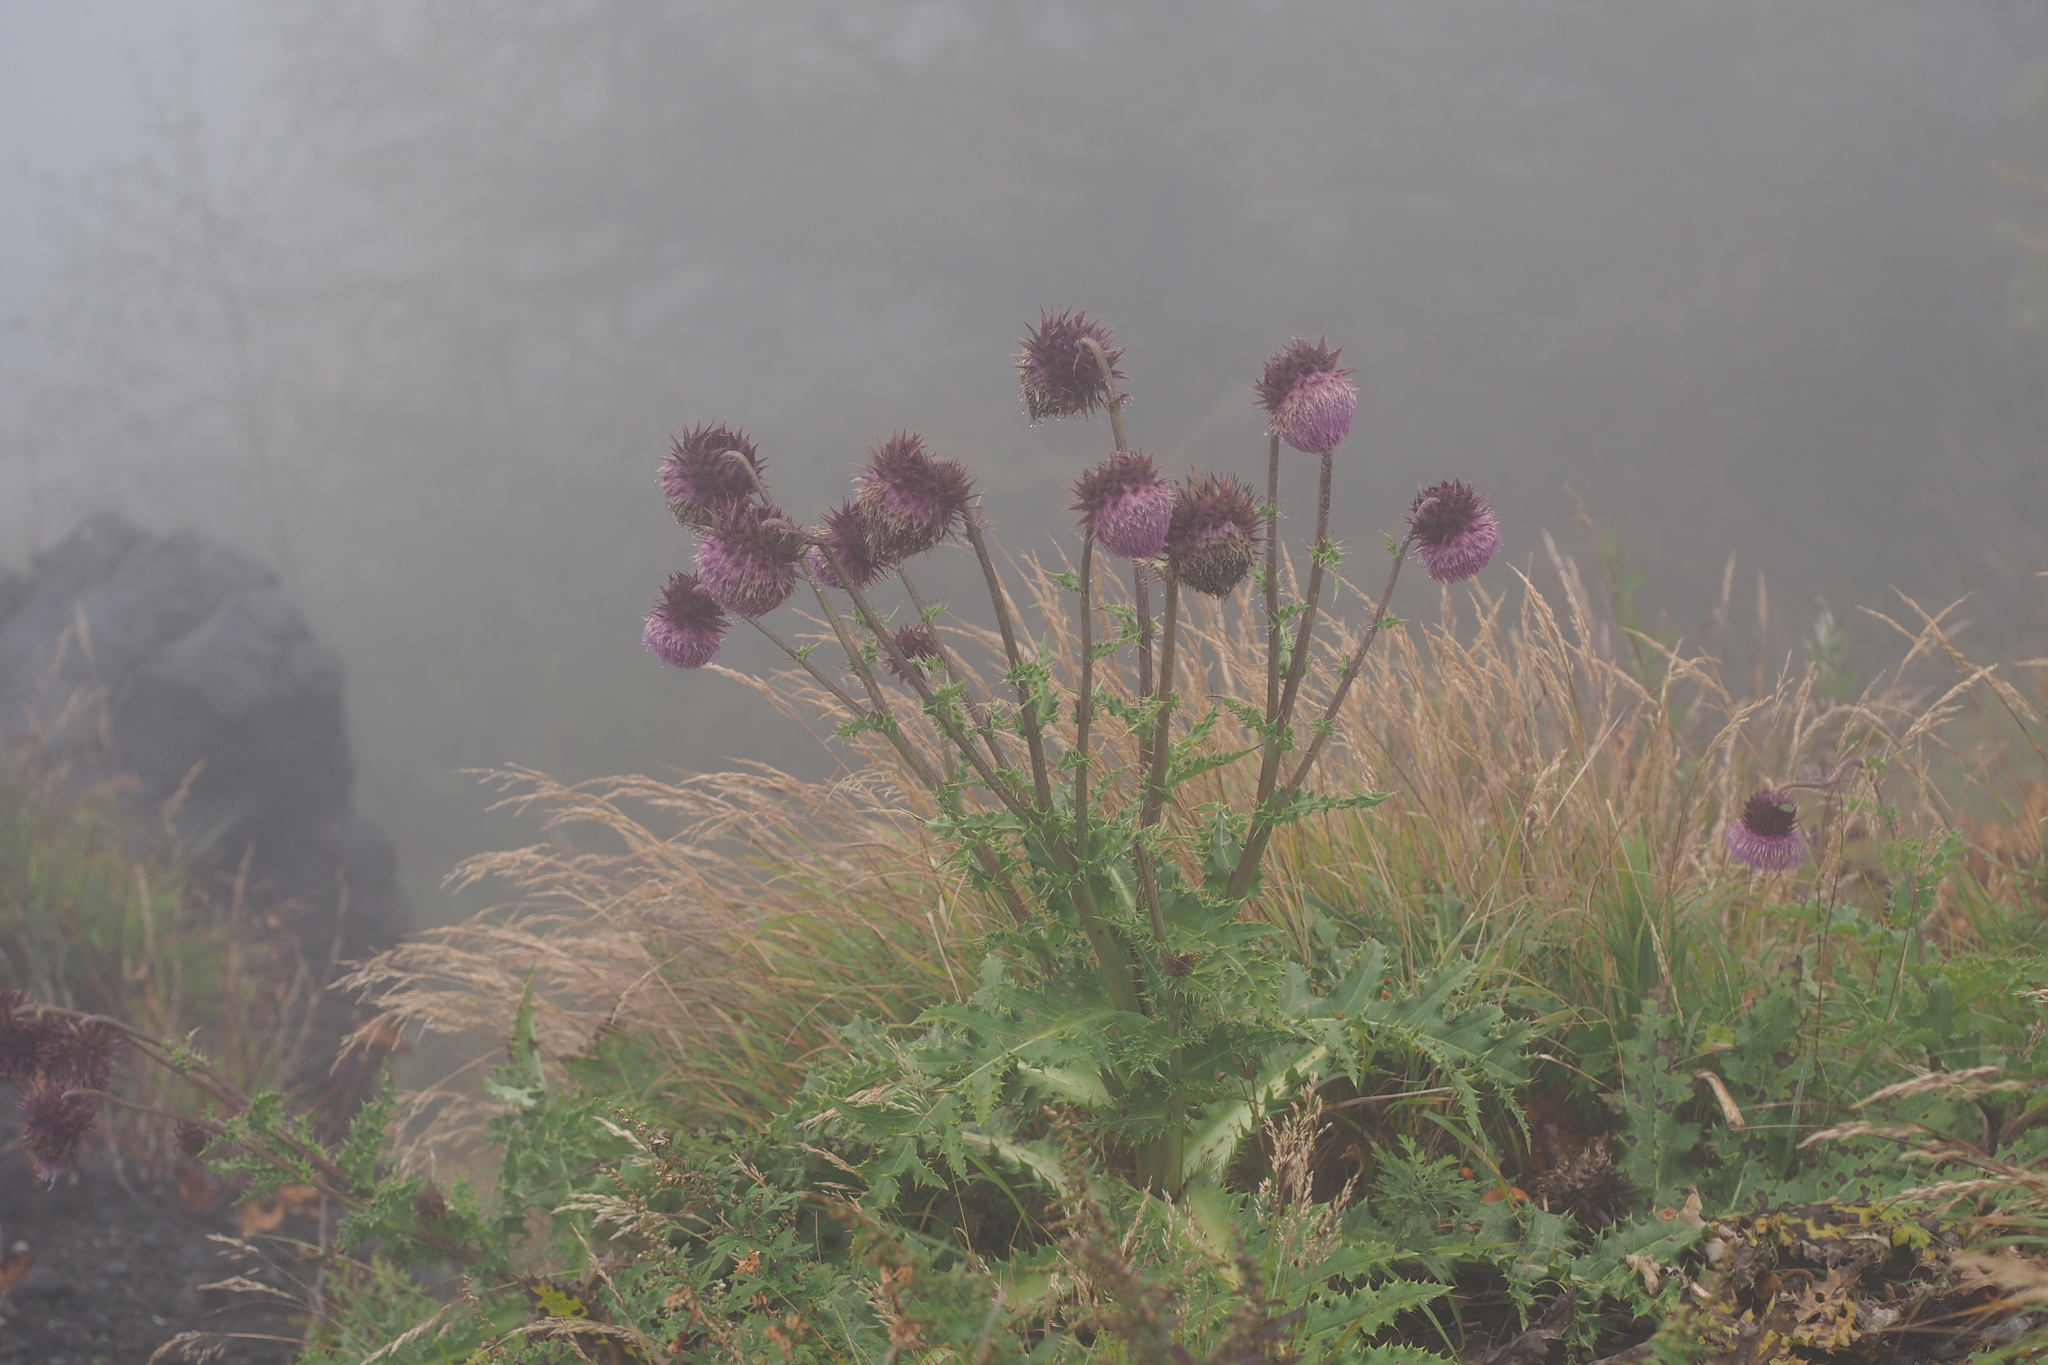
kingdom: Plantae
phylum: Tracheophyta
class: Magnoliopsida
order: Asterales
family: Asteraceae
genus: Cirsium
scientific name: Cirsium purpuratum
